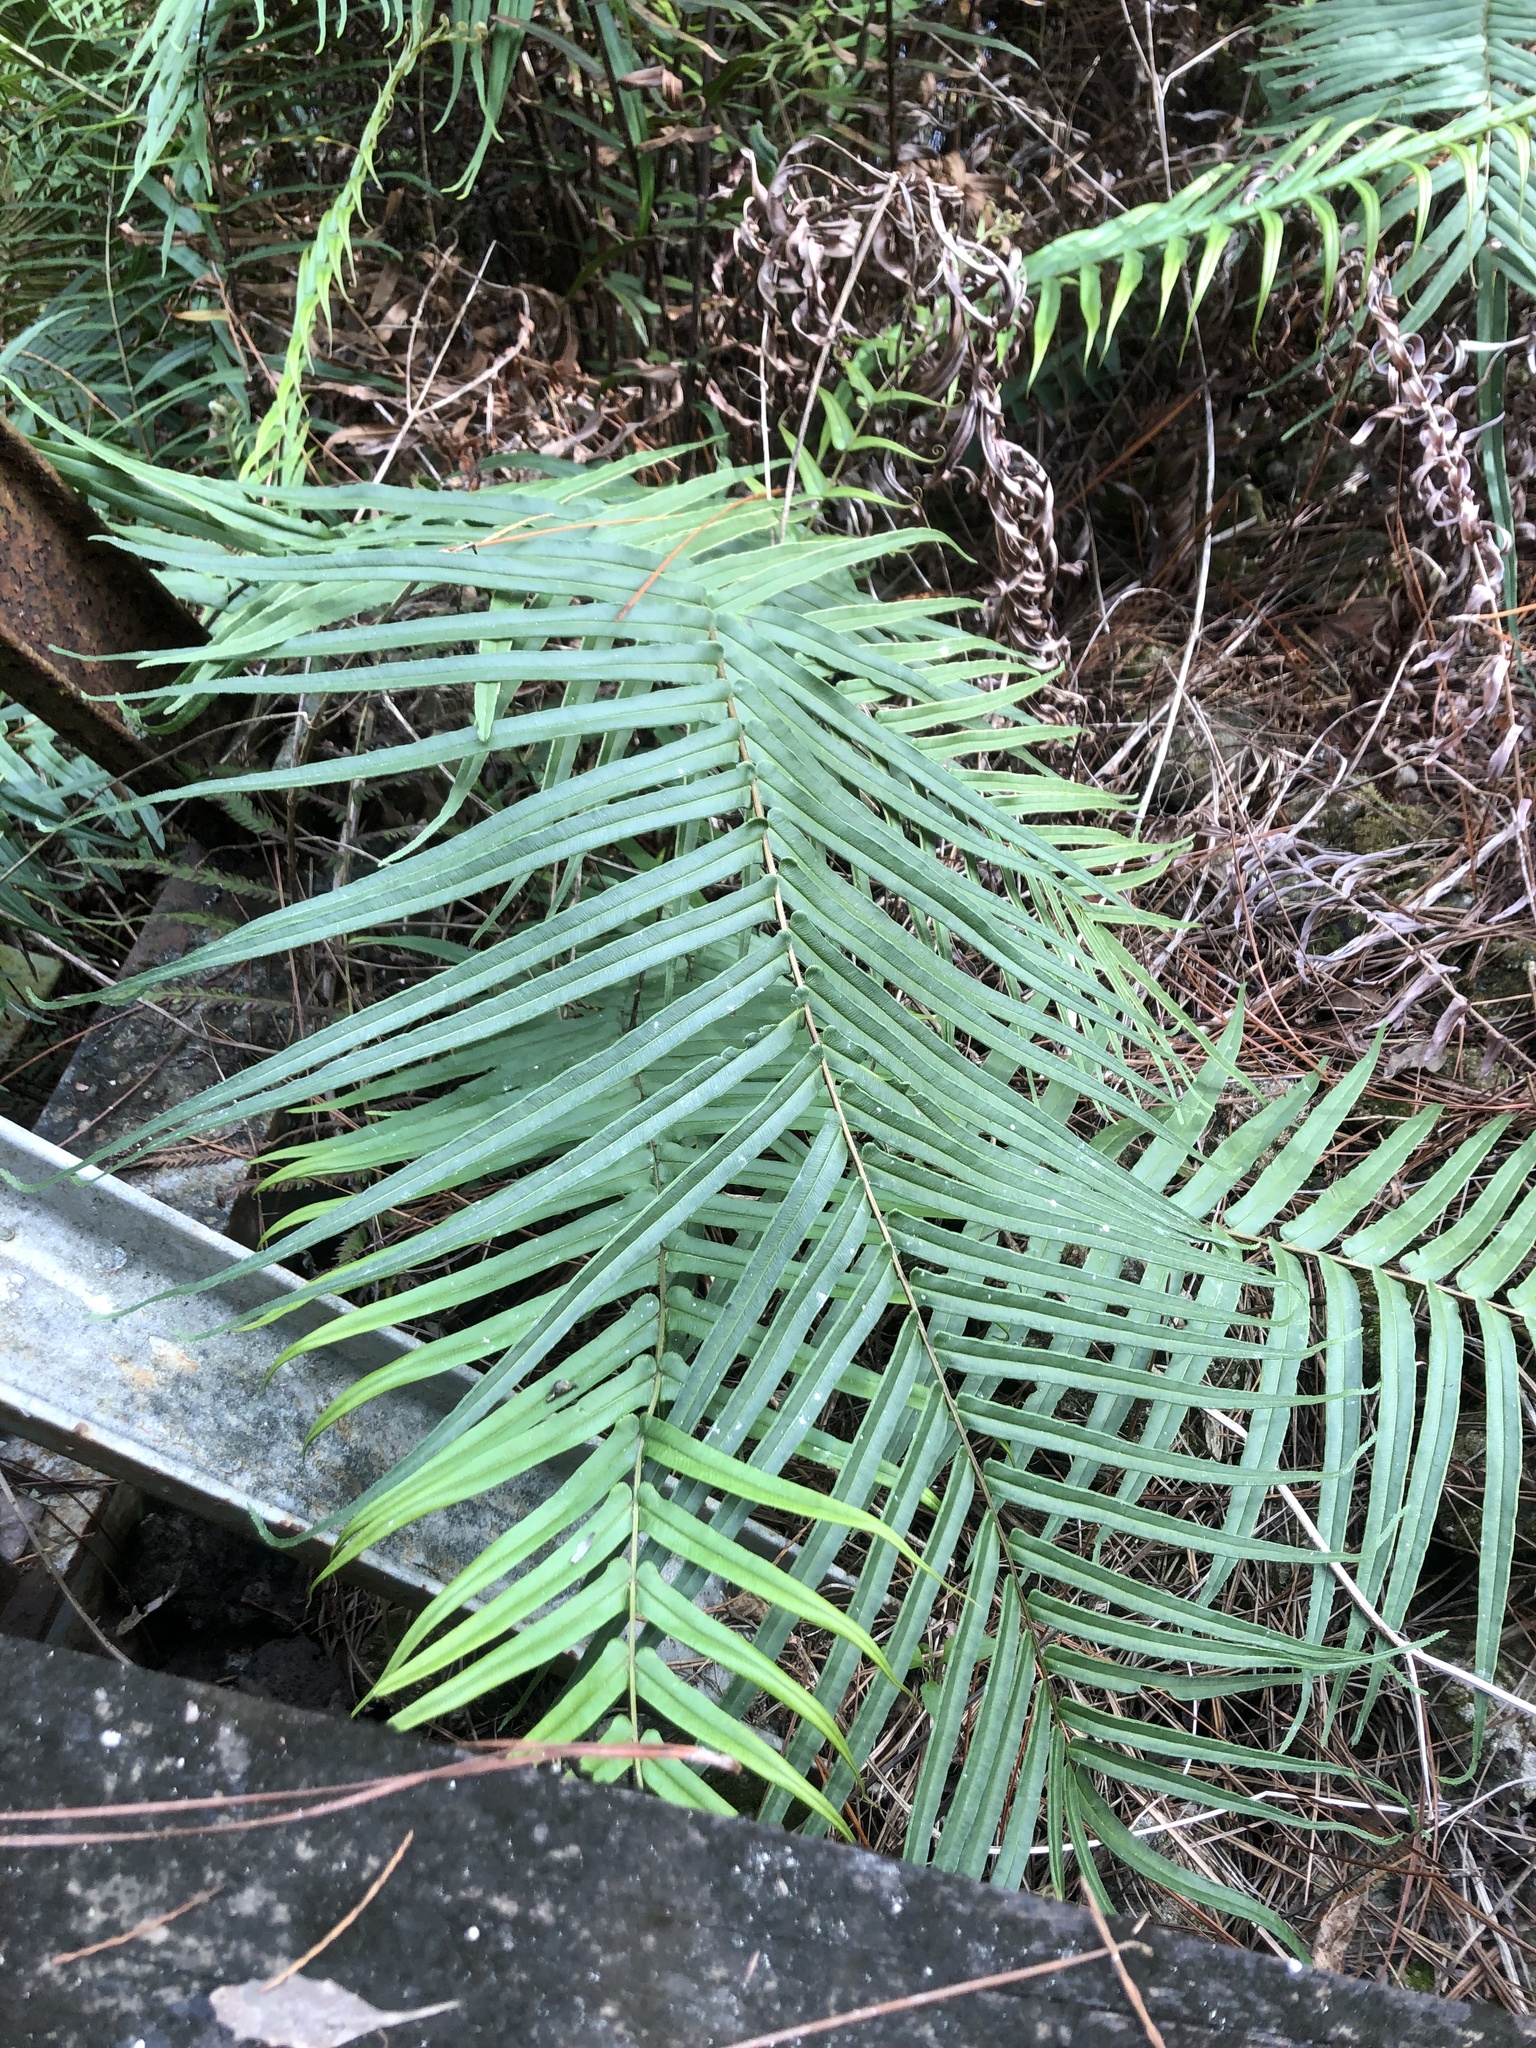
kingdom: Plantae
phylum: Tracheophyta
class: Polypodiopsida
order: Polypodiales
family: Pteridaceae
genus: Pteris
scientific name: Pteris vittata
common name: Ladder brake
